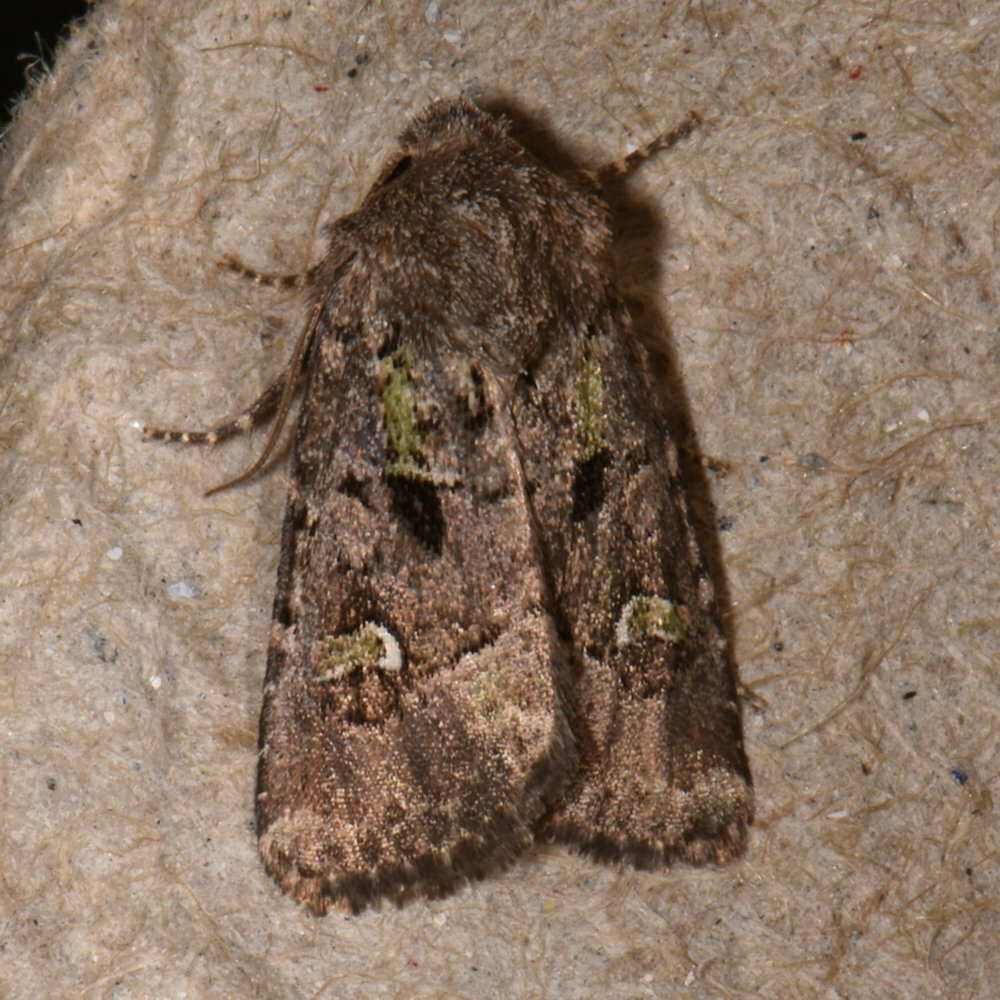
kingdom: Animalia
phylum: Arthropoda
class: Insecta
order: Lepidoptera
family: Noctuidae
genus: Lacinipolia
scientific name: Lacinipolia renigera
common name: Kidney-spotted minor
